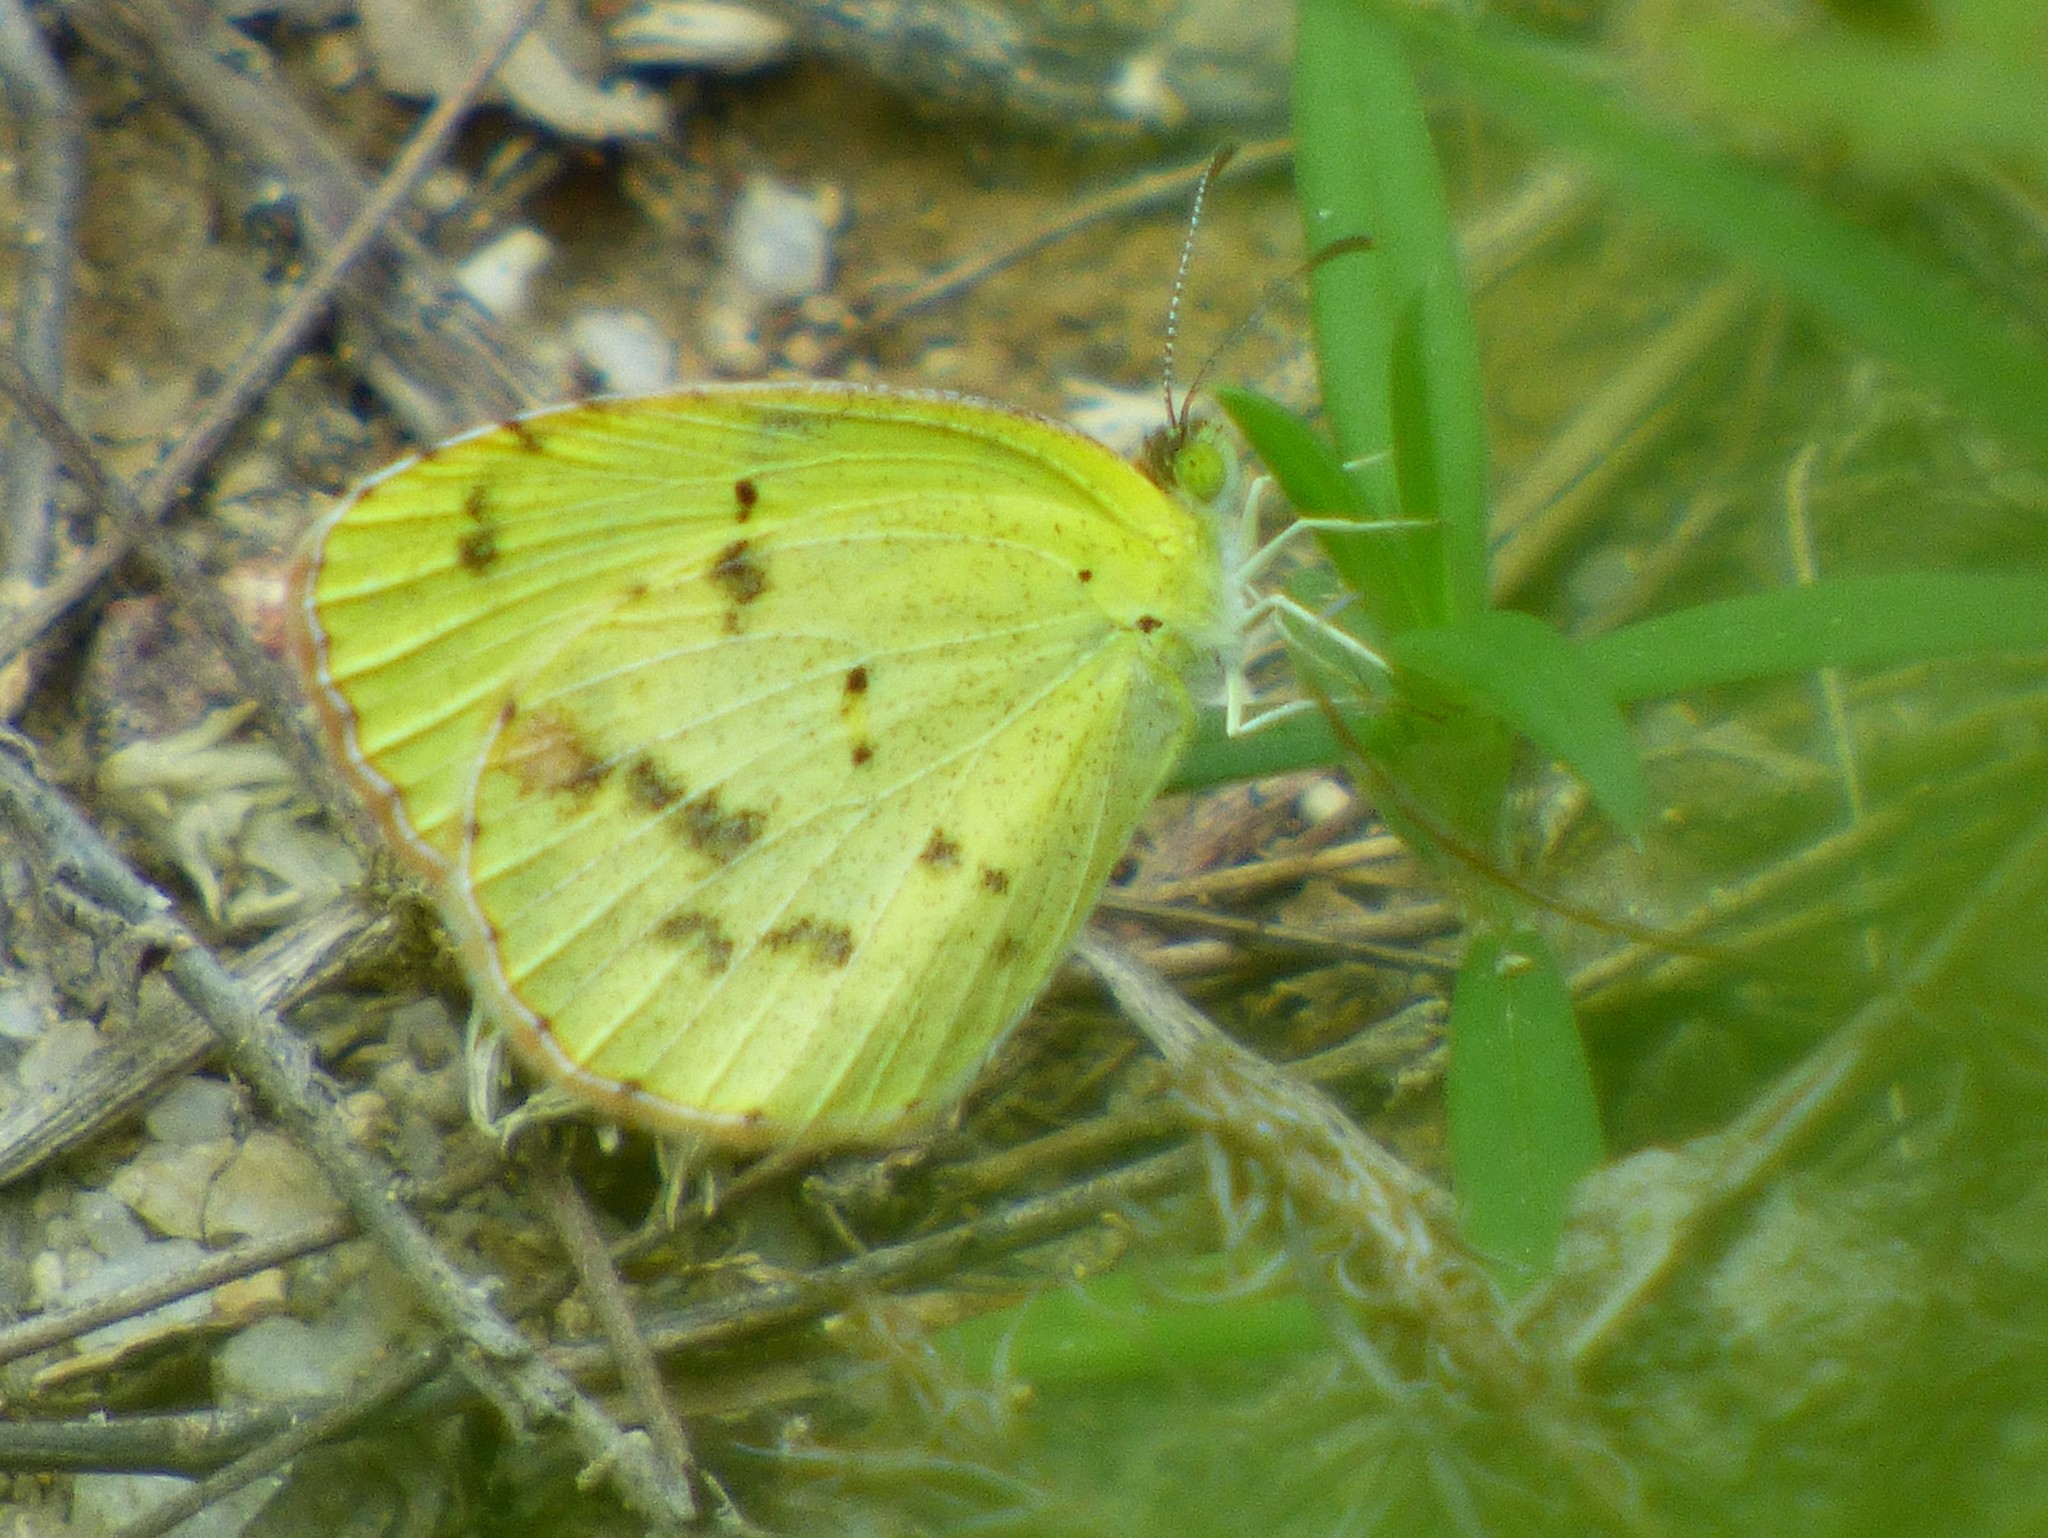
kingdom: Animalia
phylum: Arthropoda
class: Insecta
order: Lepidoptera
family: Pieridae
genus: Pyrisitia
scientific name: Pyrisitia lisa
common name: Little yellow
